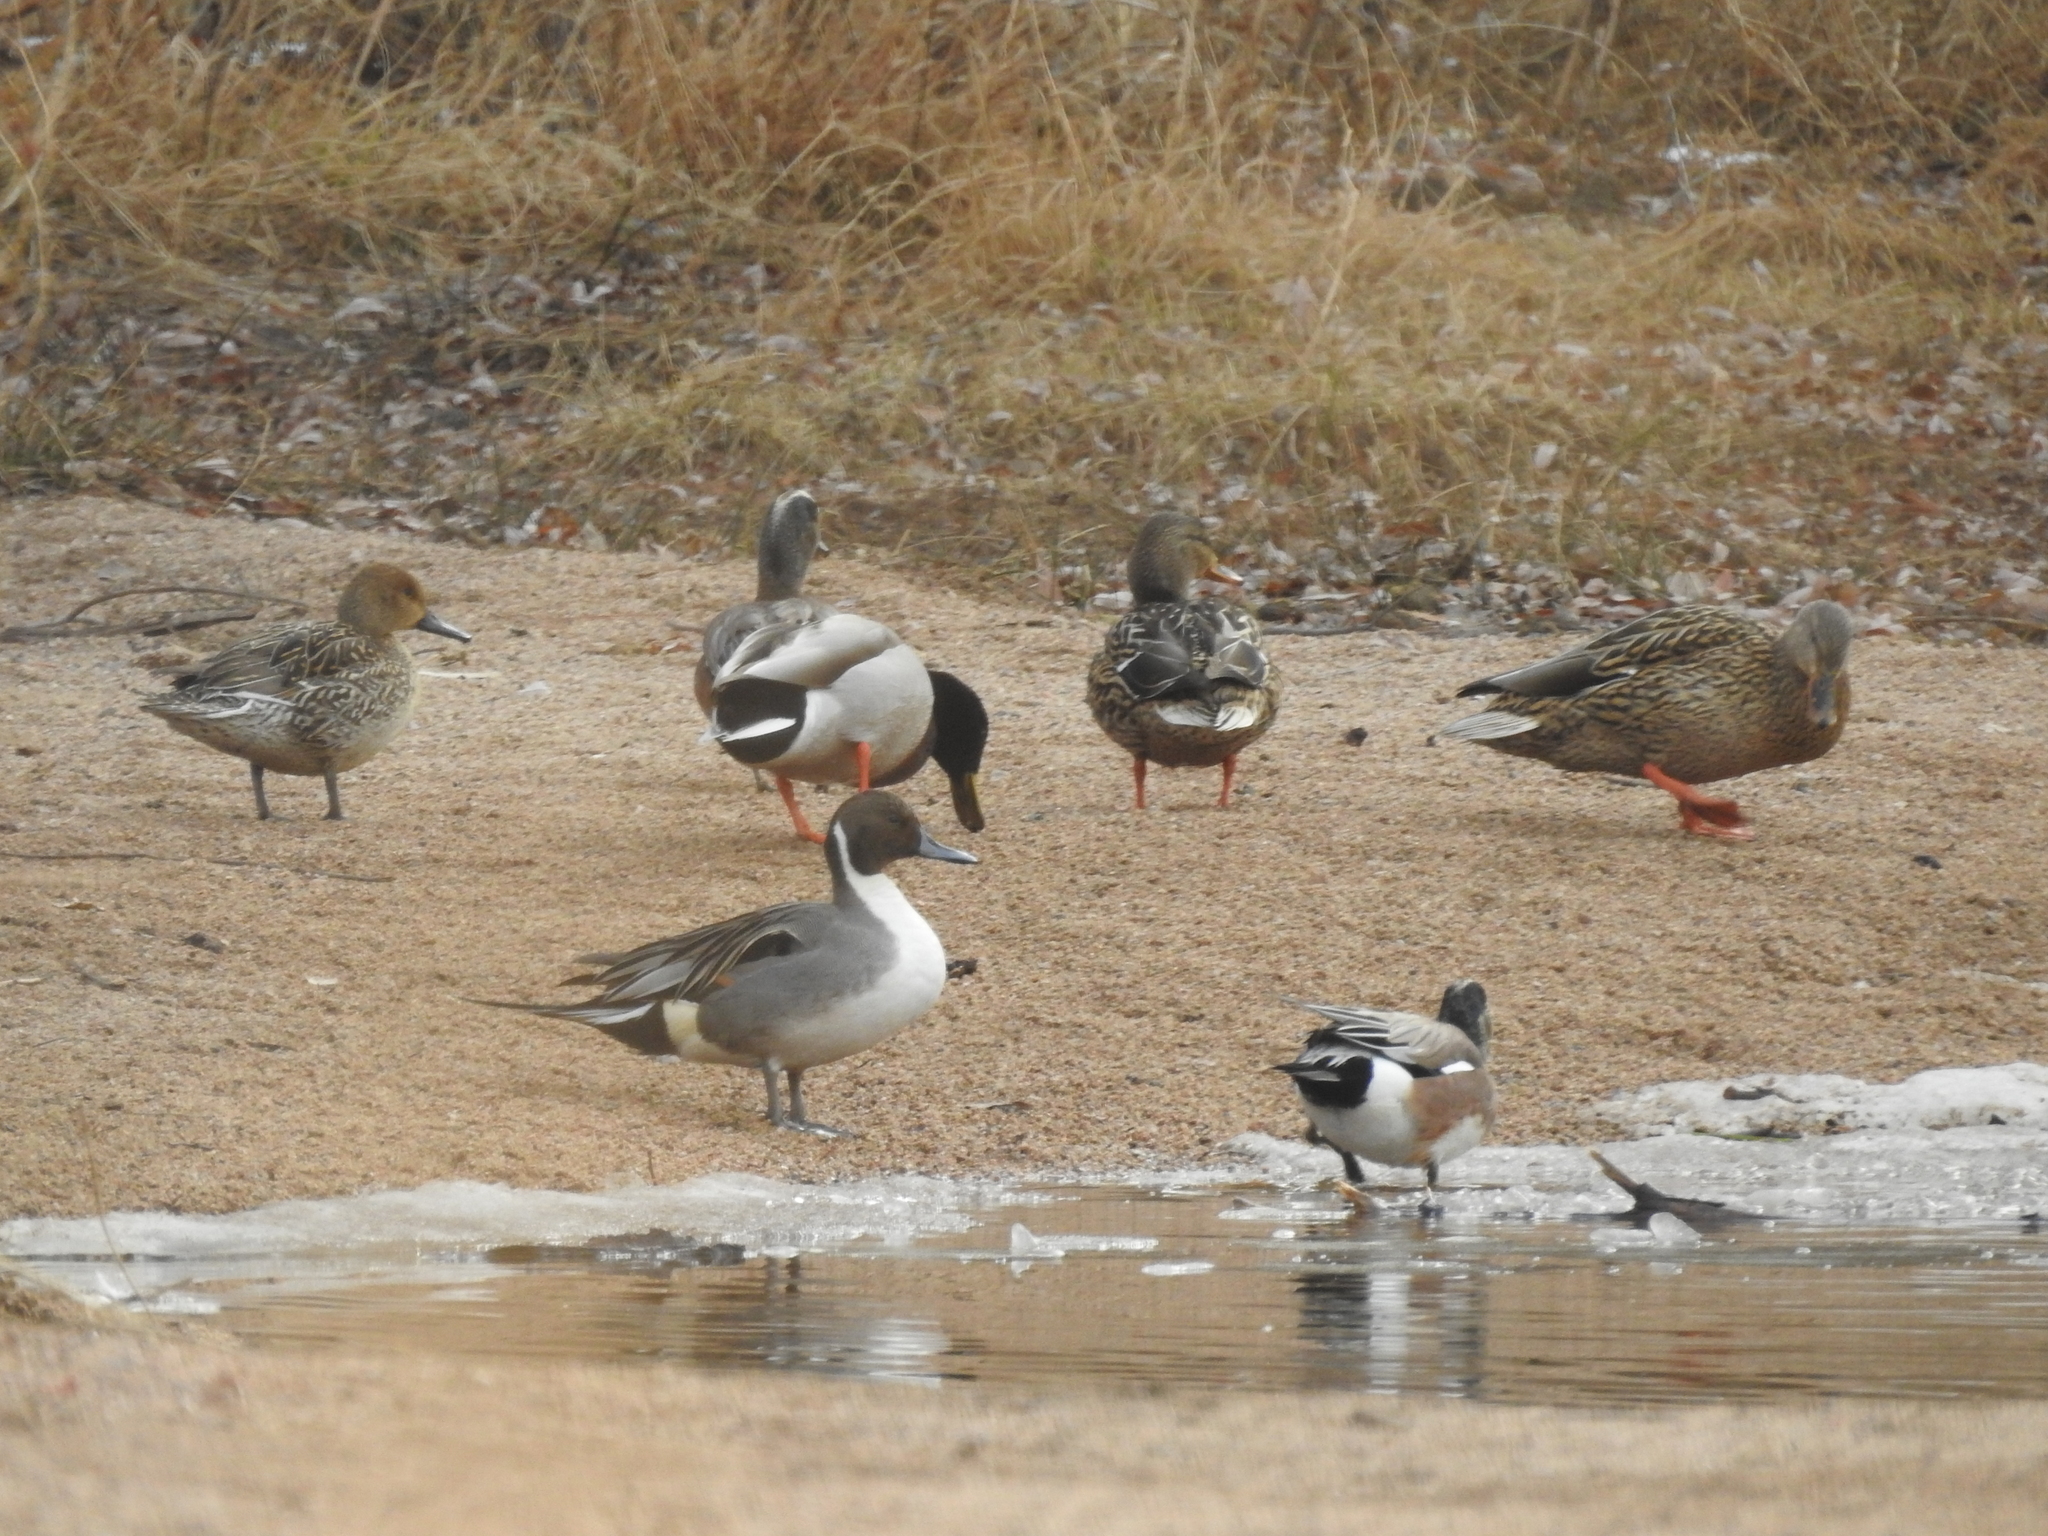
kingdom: Animalia
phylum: Chordata
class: Aves
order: Anseriformes
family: Anatidae
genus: Anas
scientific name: Anas platyrhynchos
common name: Mallard
